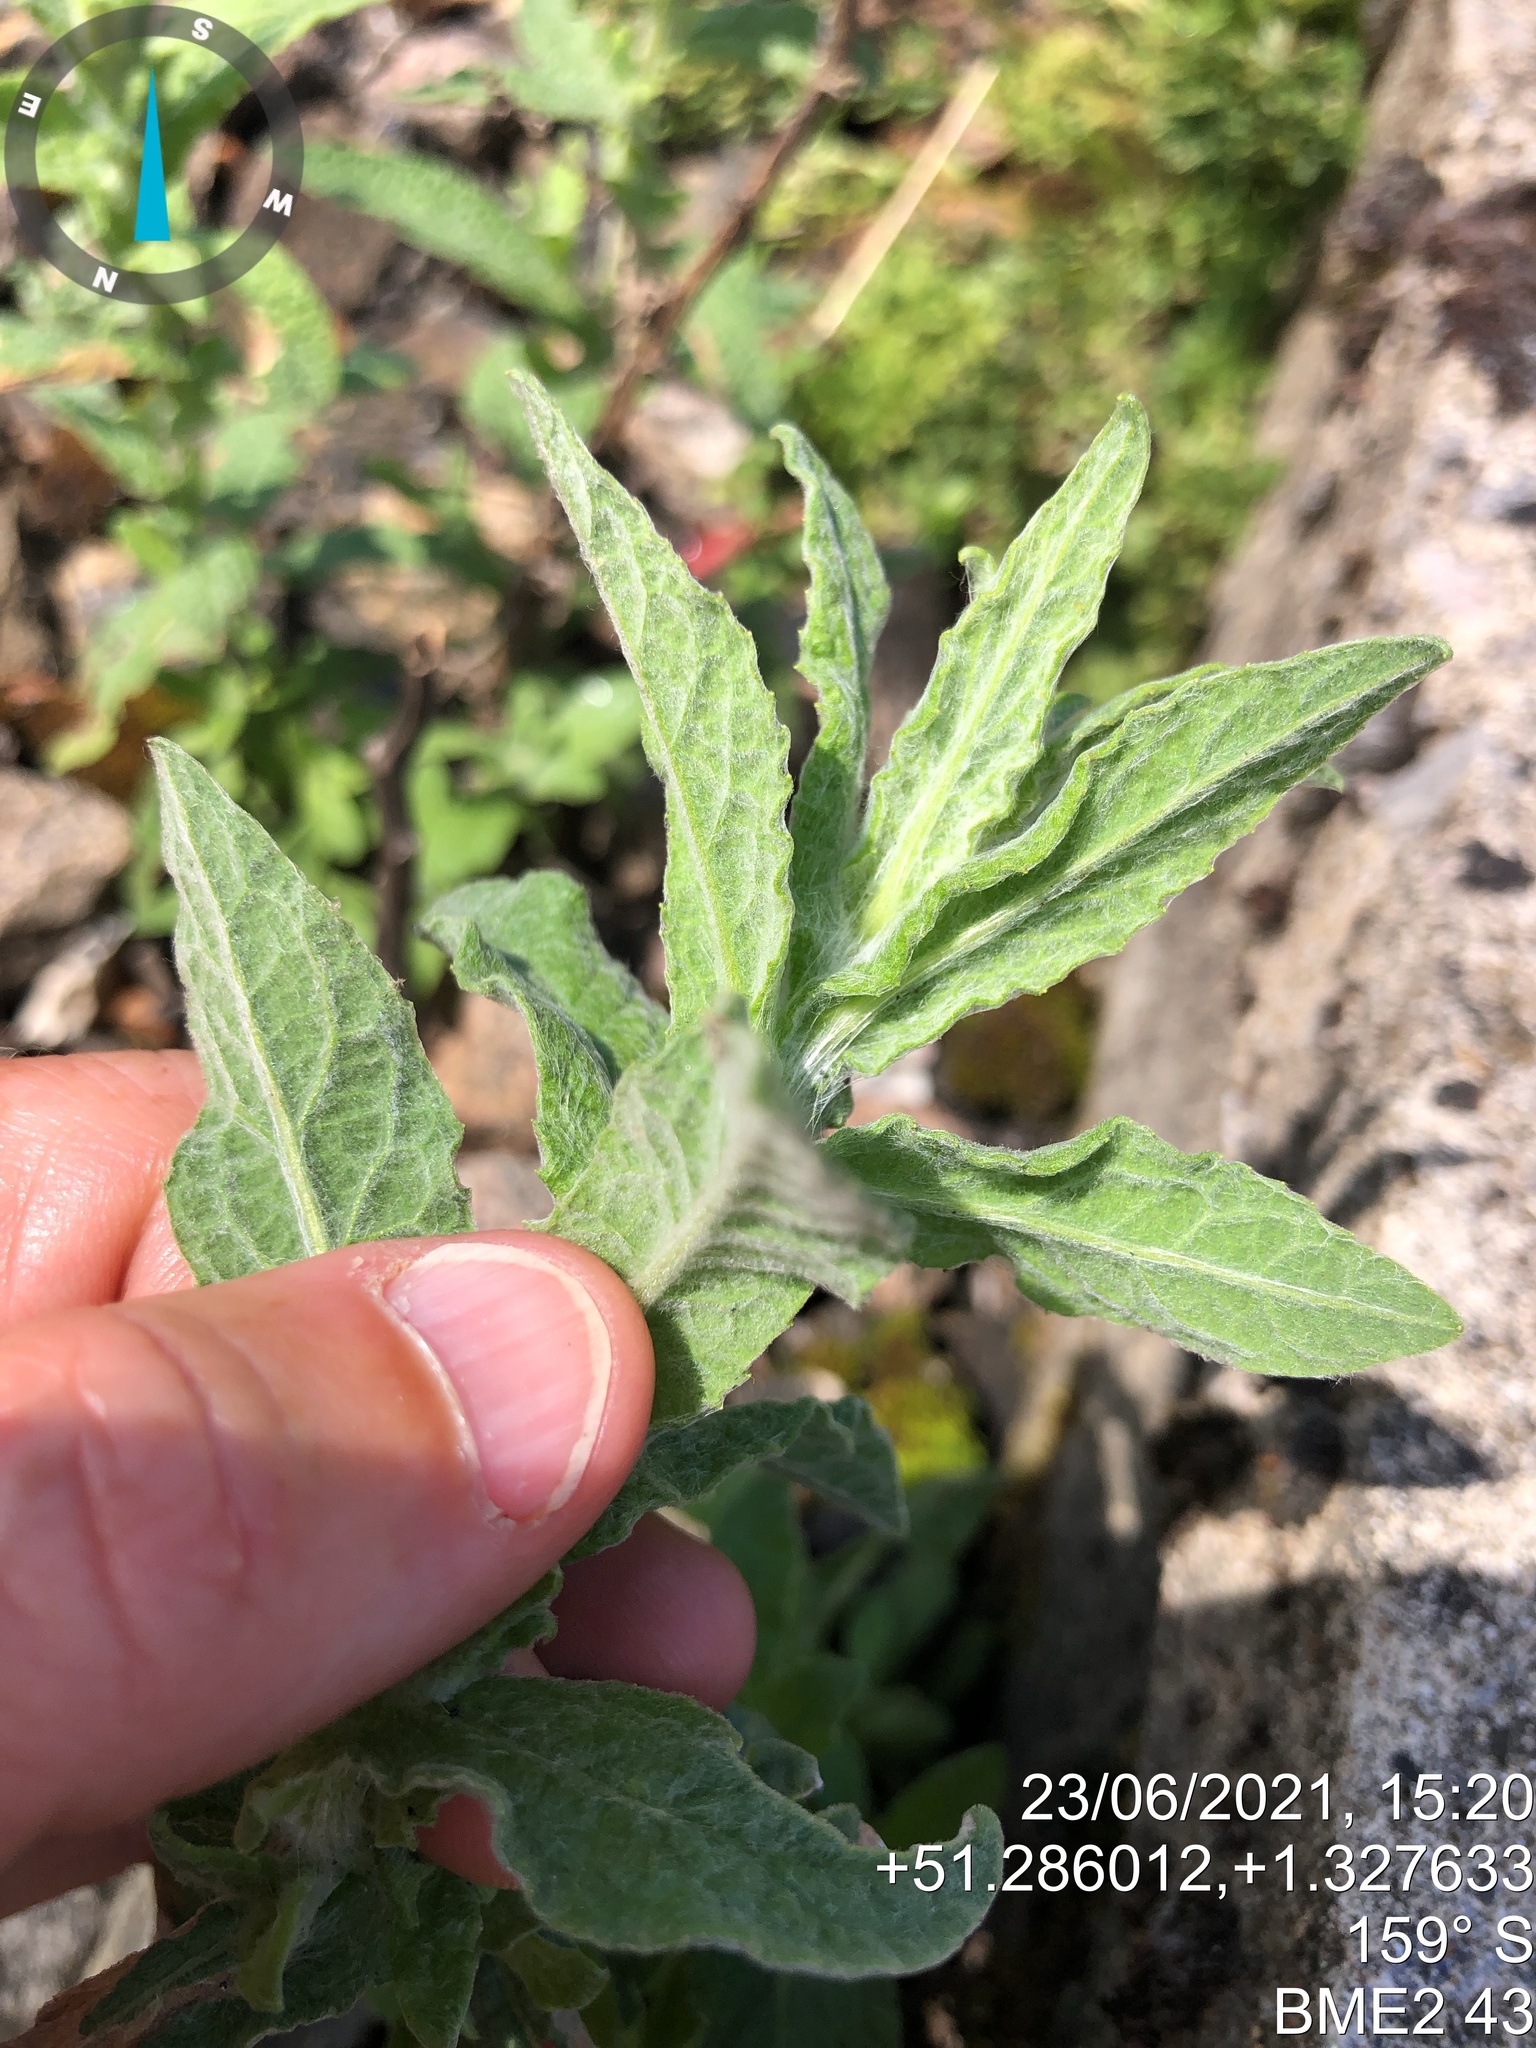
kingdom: Plantae
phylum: Tracheophyta
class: Magnoliopsida
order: Asterales
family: Asteraceae
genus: Pulicaria
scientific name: Pulicaria dysenterica
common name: Common fleabane
